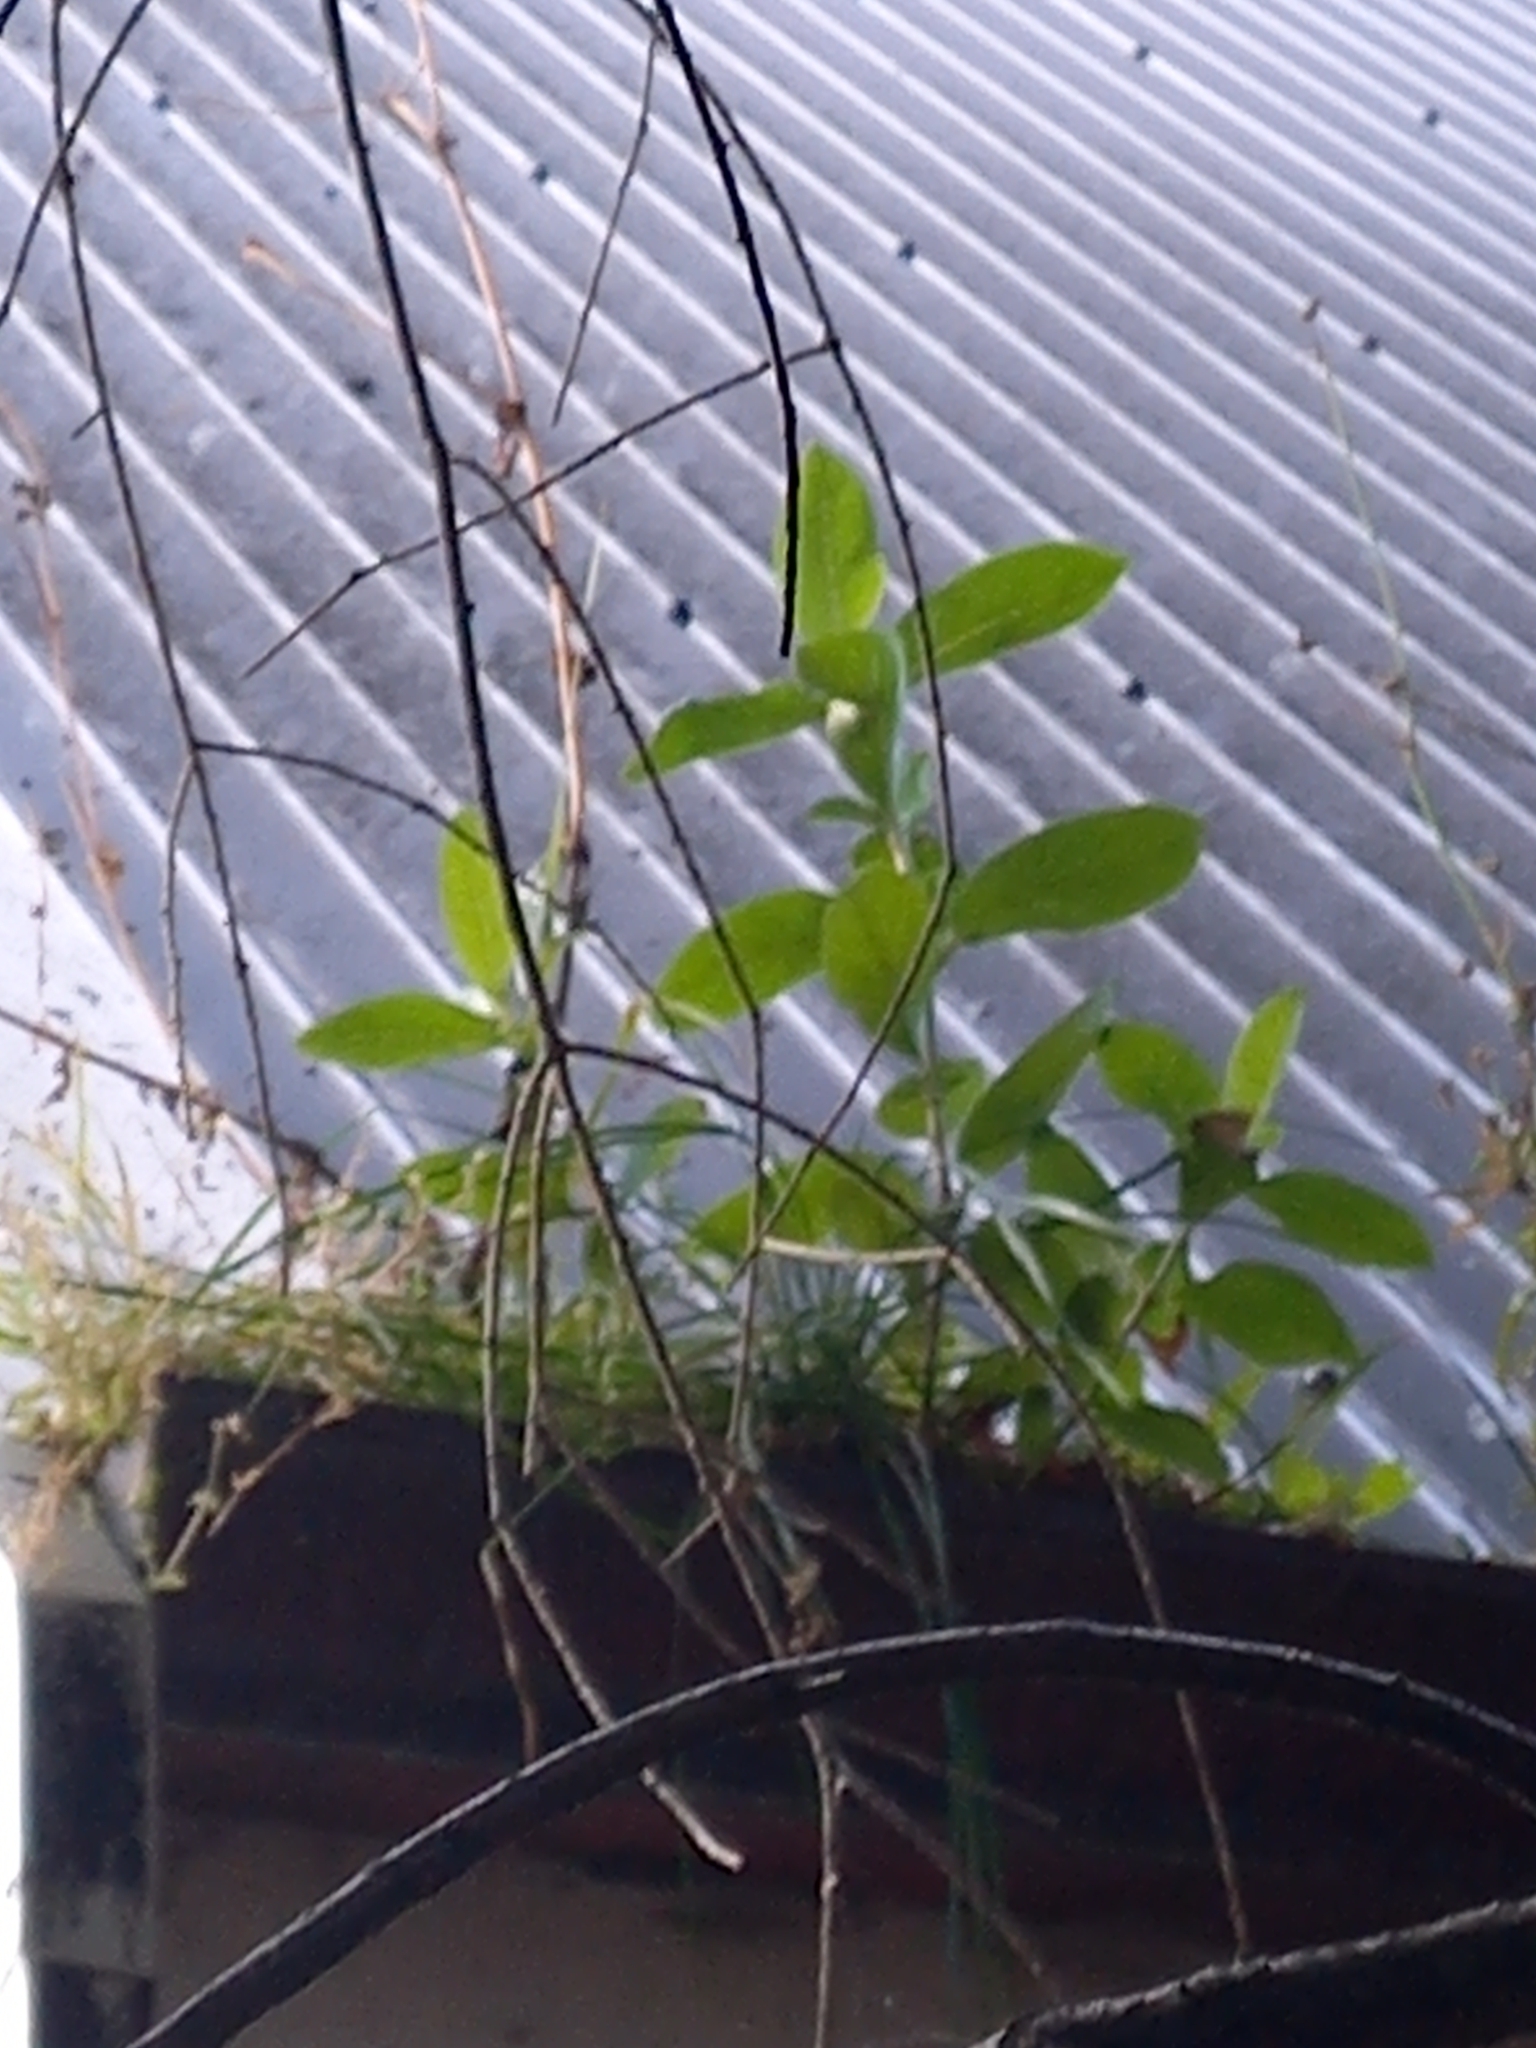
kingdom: Plantae
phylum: Tracheophyta
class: Magnoliopsida
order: Gentianales
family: Rubiaceae
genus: Coprosma
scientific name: Coprosma robusta
